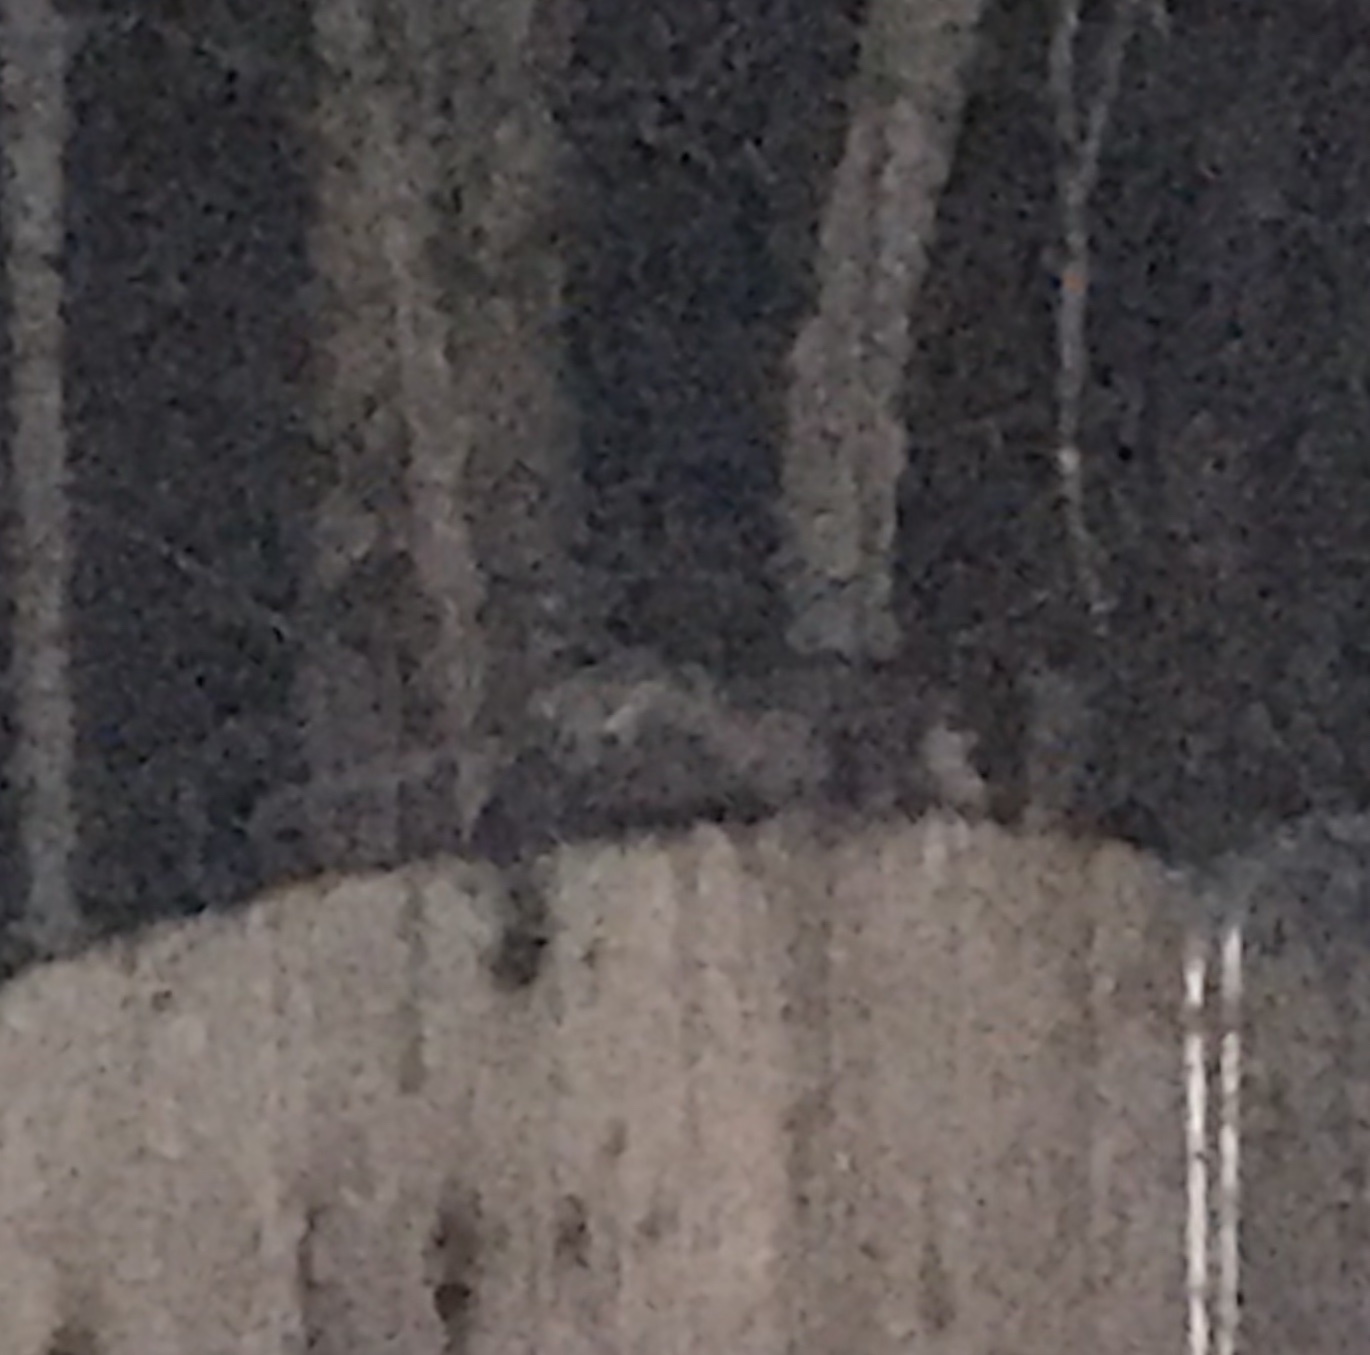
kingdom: Animalia
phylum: Chordata
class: Mammalia
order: Didelphimorphia
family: Didelphidae
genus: Didelphis
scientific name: Didelphis virginiana
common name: Virginia opossum
